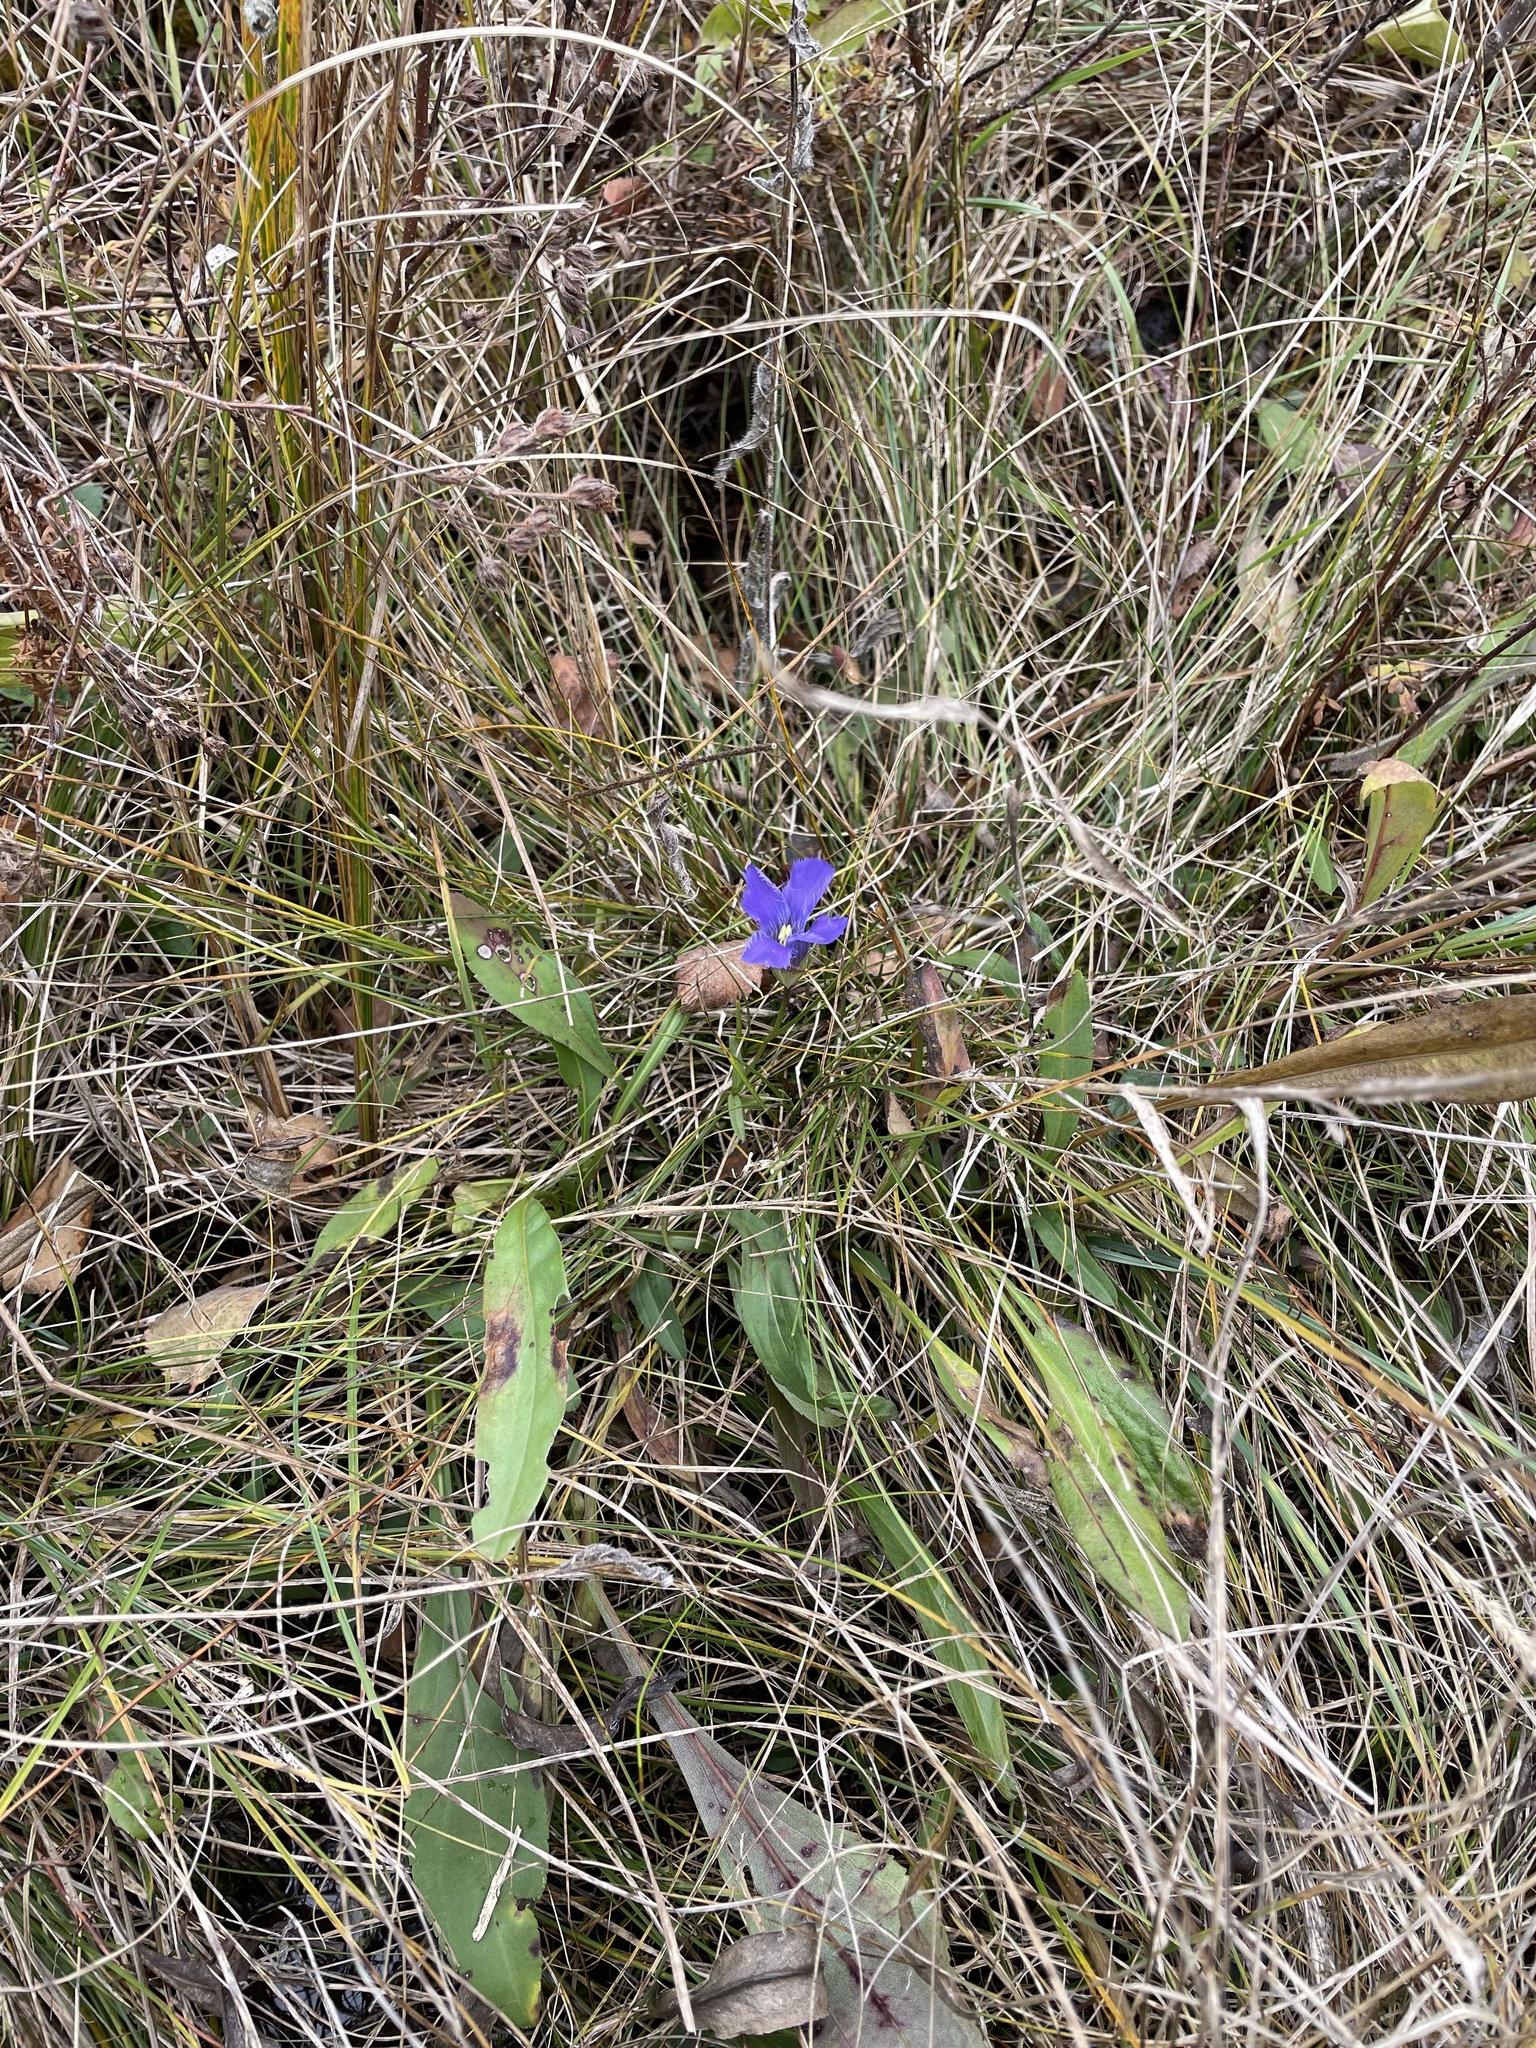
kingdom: Plantae
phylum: Tracheophyta
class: Magnoliopsida
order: Gentianales
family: Gentianaceae
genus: Gentianopsis
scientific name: Gentianopsis virgata
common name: Lesser fringed-gentian
